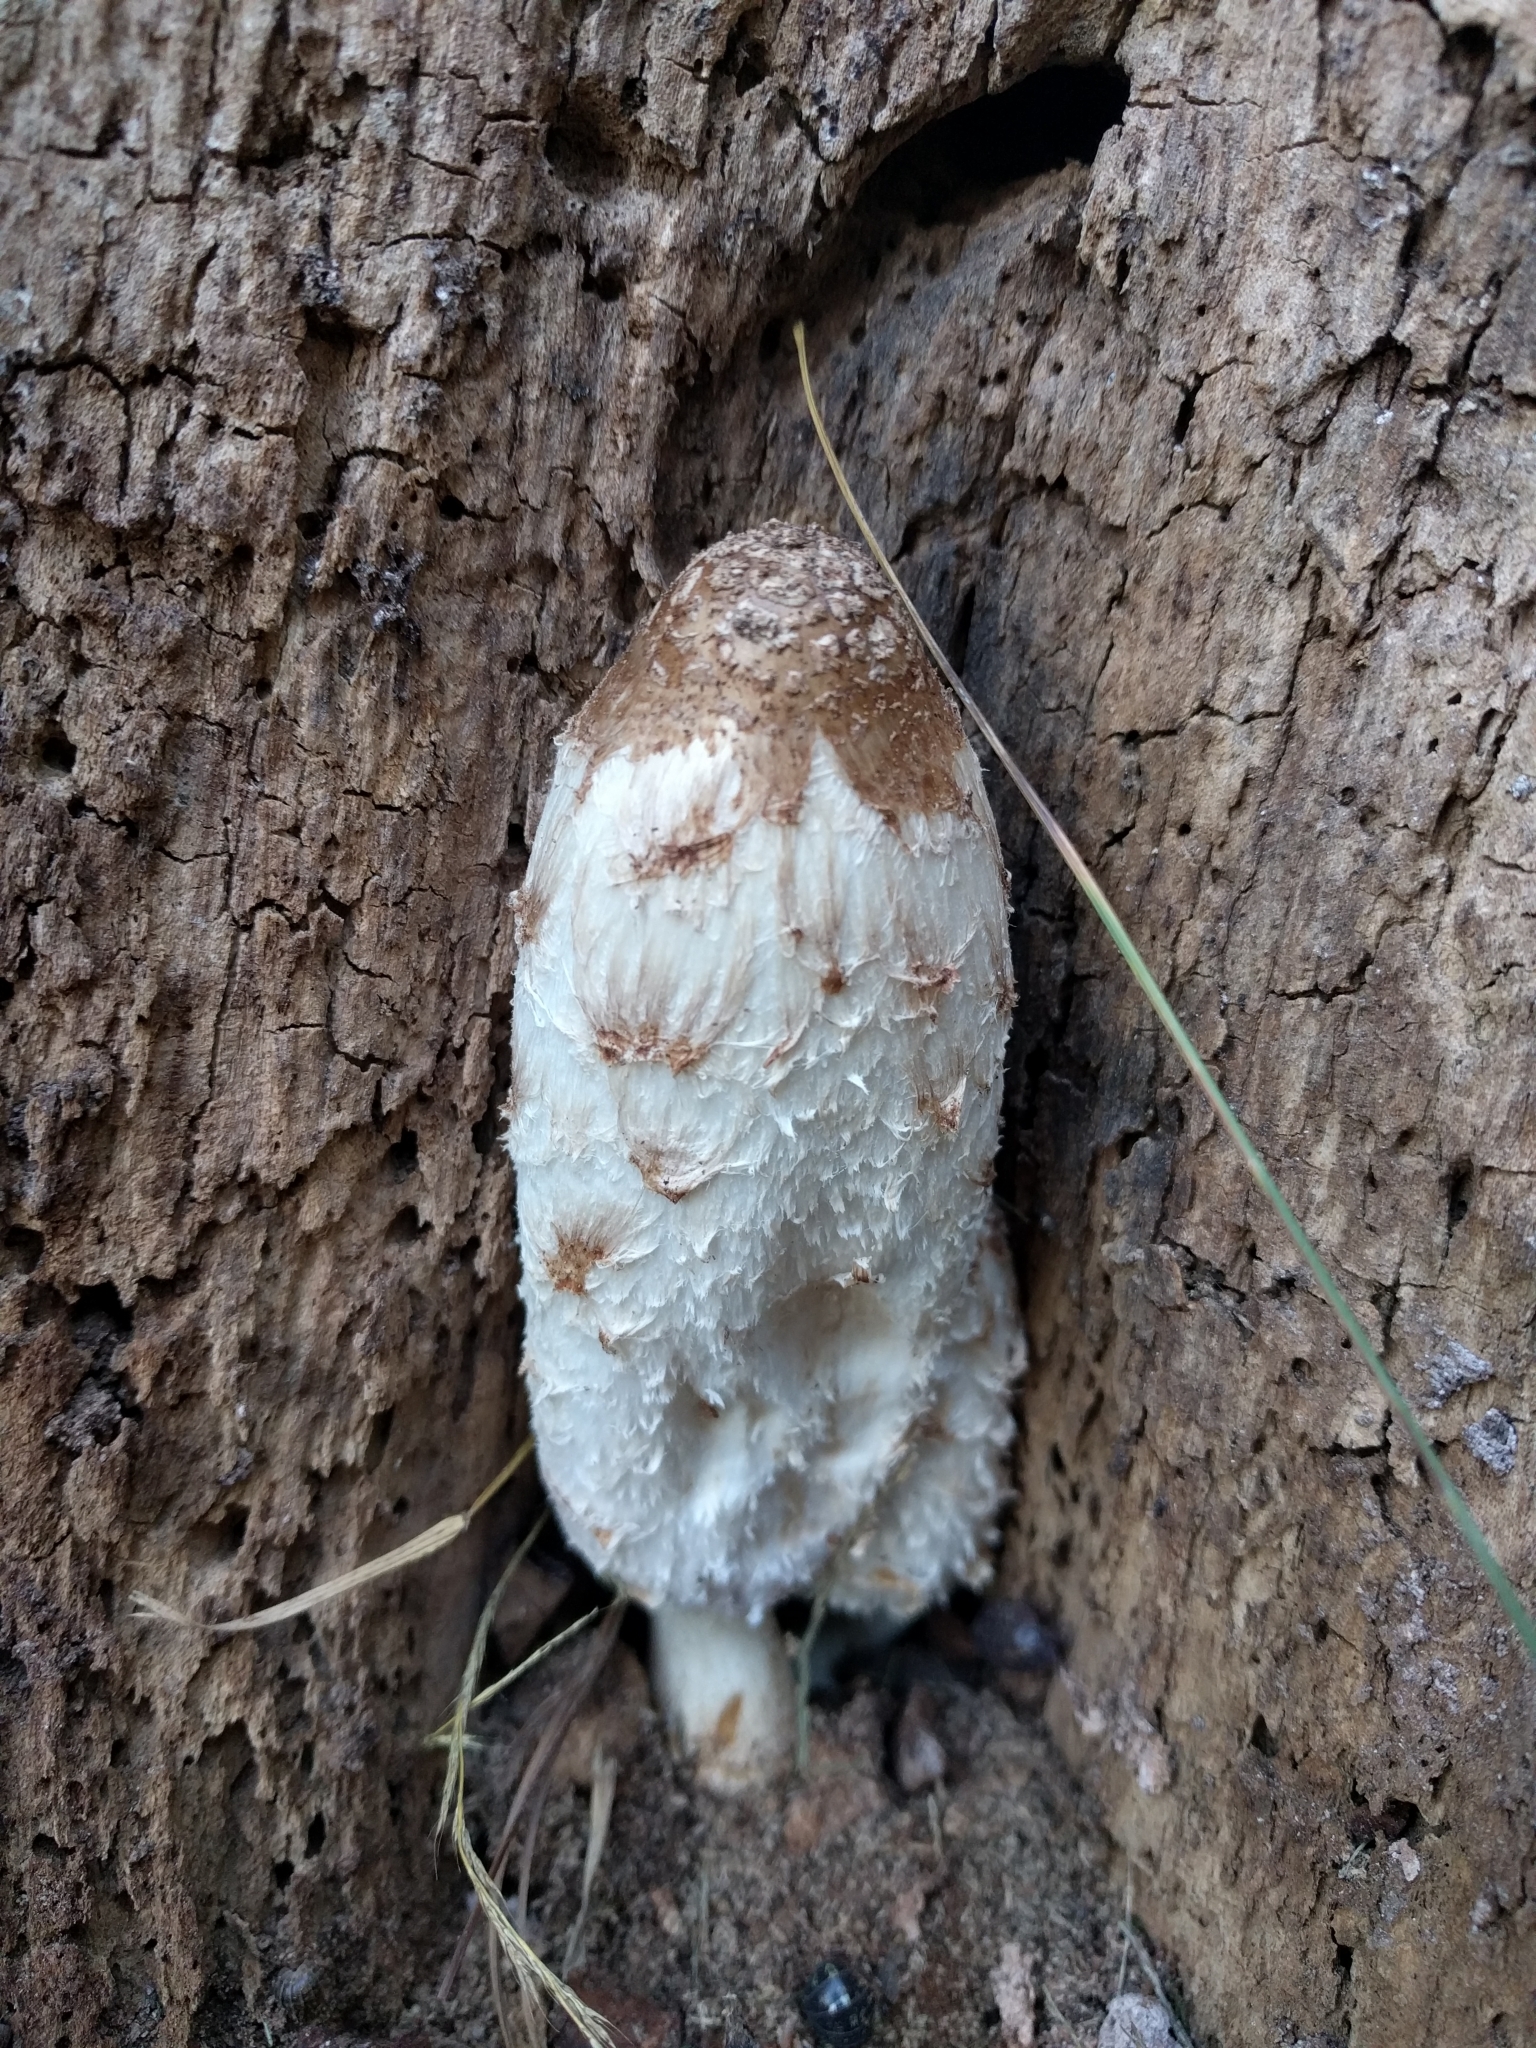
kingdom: Fungi
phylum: Basidiomycota
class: Agaricomycetes
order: Agaricales
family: Agaricaceae
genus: Coprinus
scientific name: Coprinus comatus
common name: Lawyer's wig
